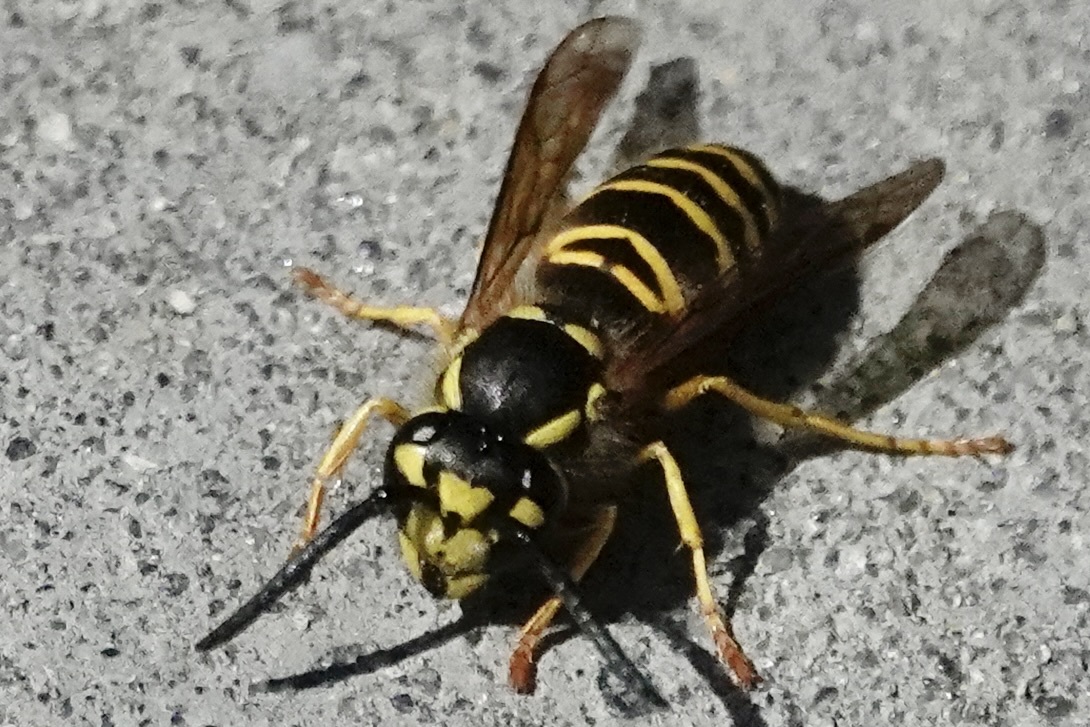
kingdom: Animalia
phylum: Arthropoda
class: Insecta
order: Hymenoptera
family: Vespidae
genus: Vespula
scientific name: Vespula maculifrons
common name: Eastern yellowjacket
